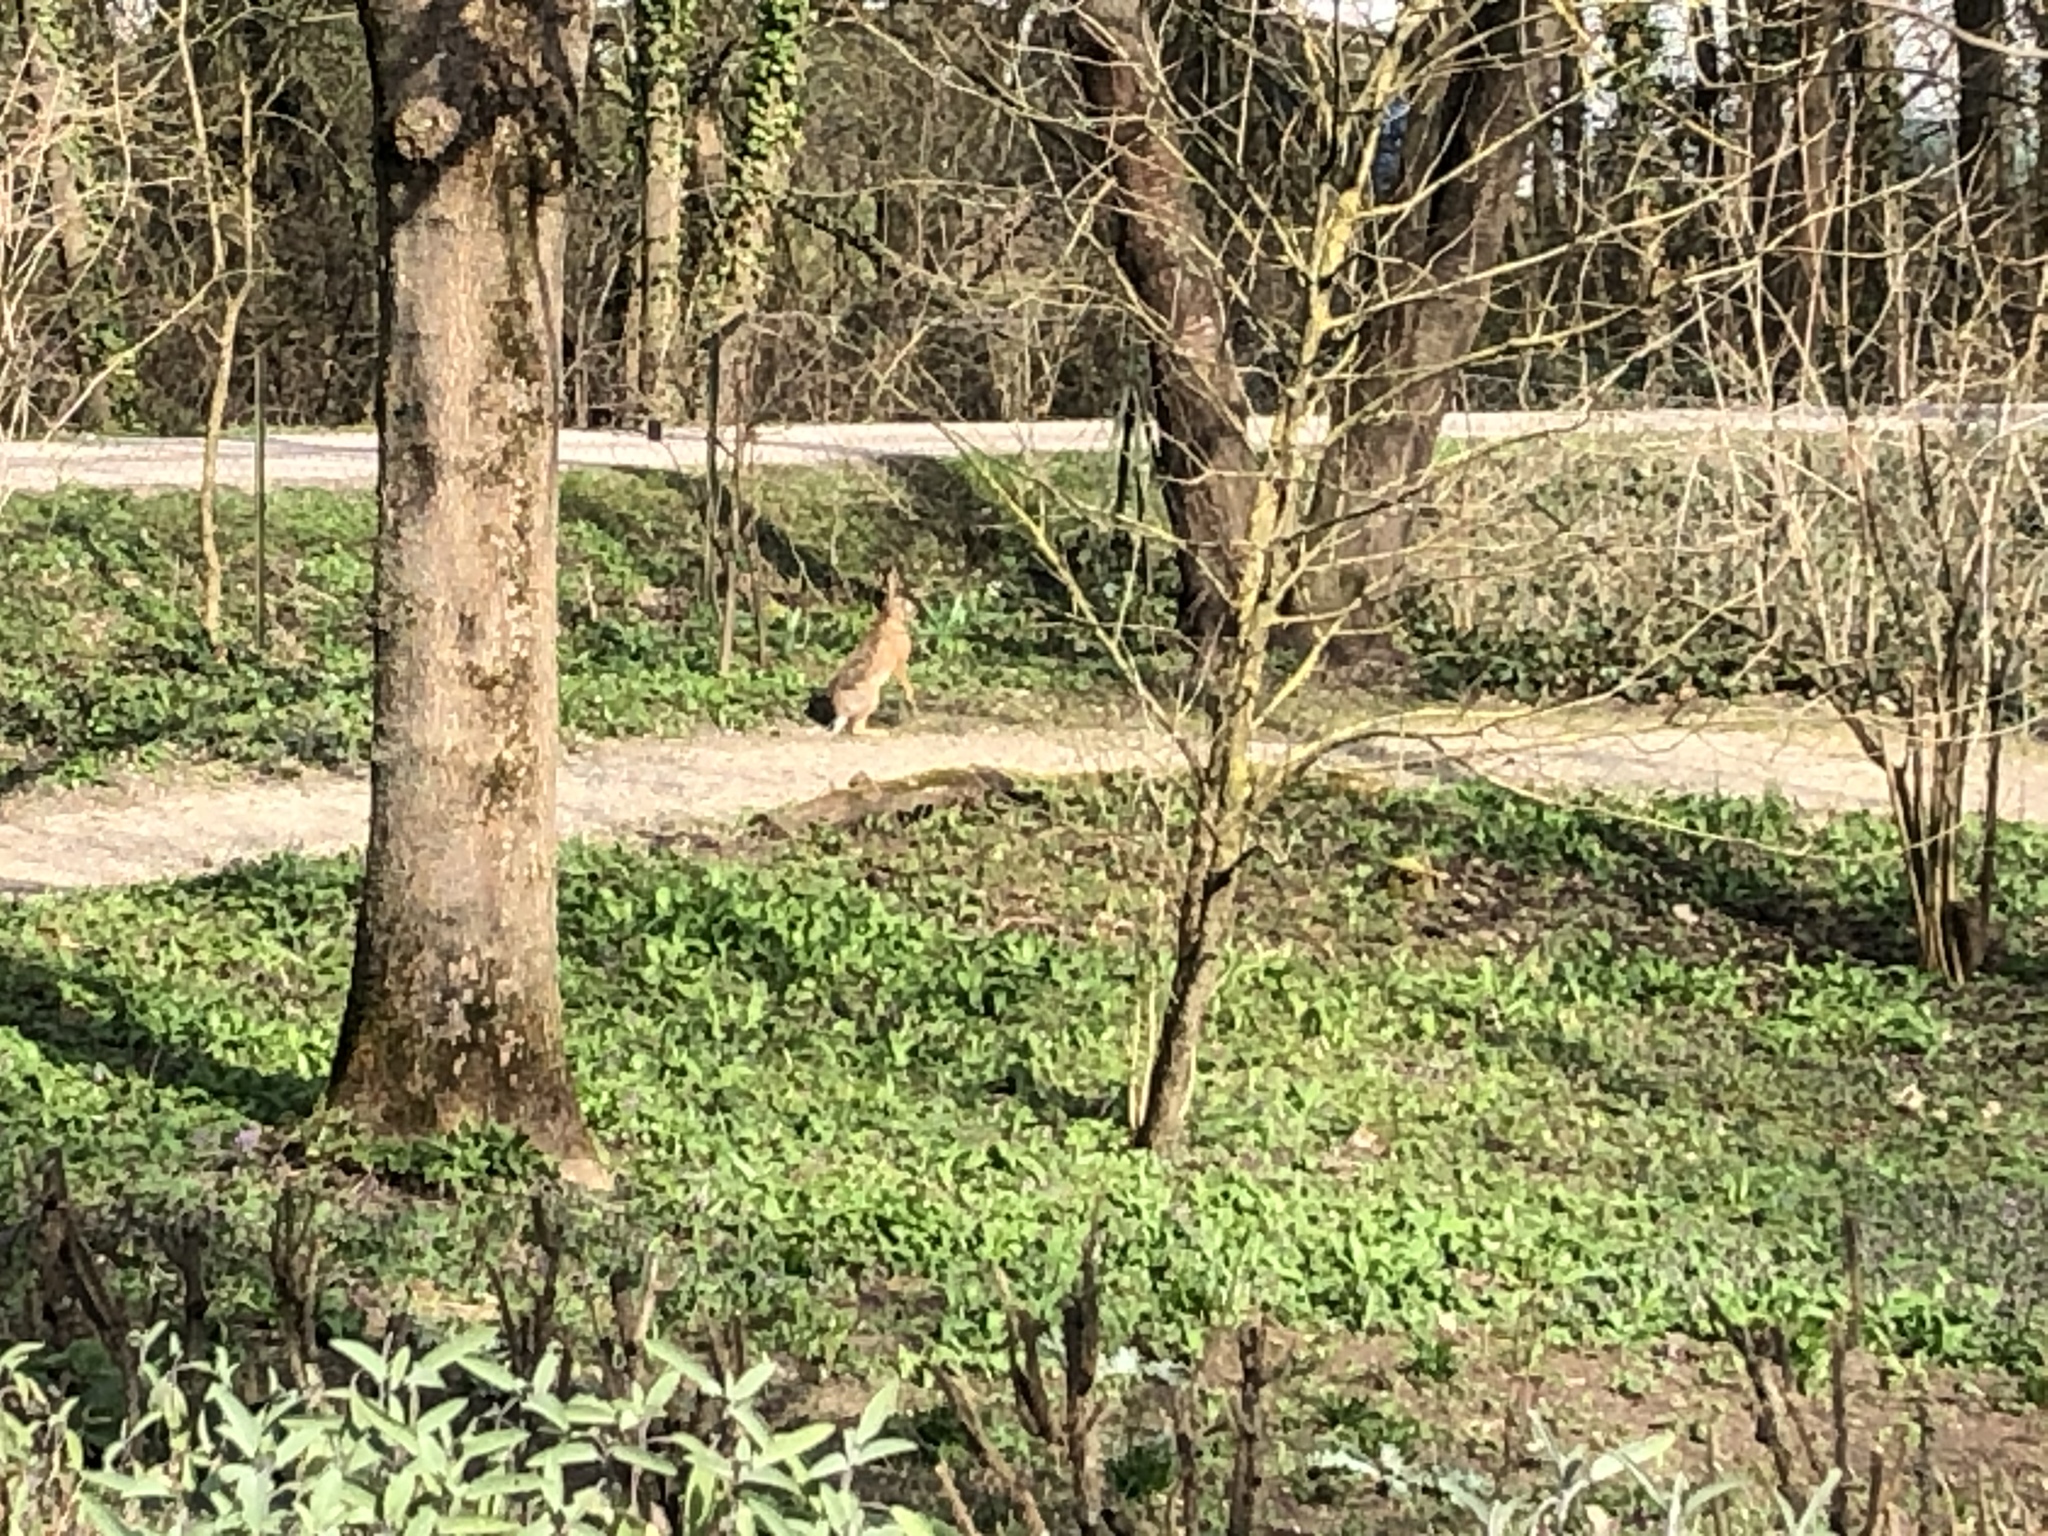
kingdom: Animalia
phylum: Chordata
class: Mammalia
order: Lagomorpha
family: Leporidae
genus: Lepus
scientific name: Lepus europaeus
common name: European hare
